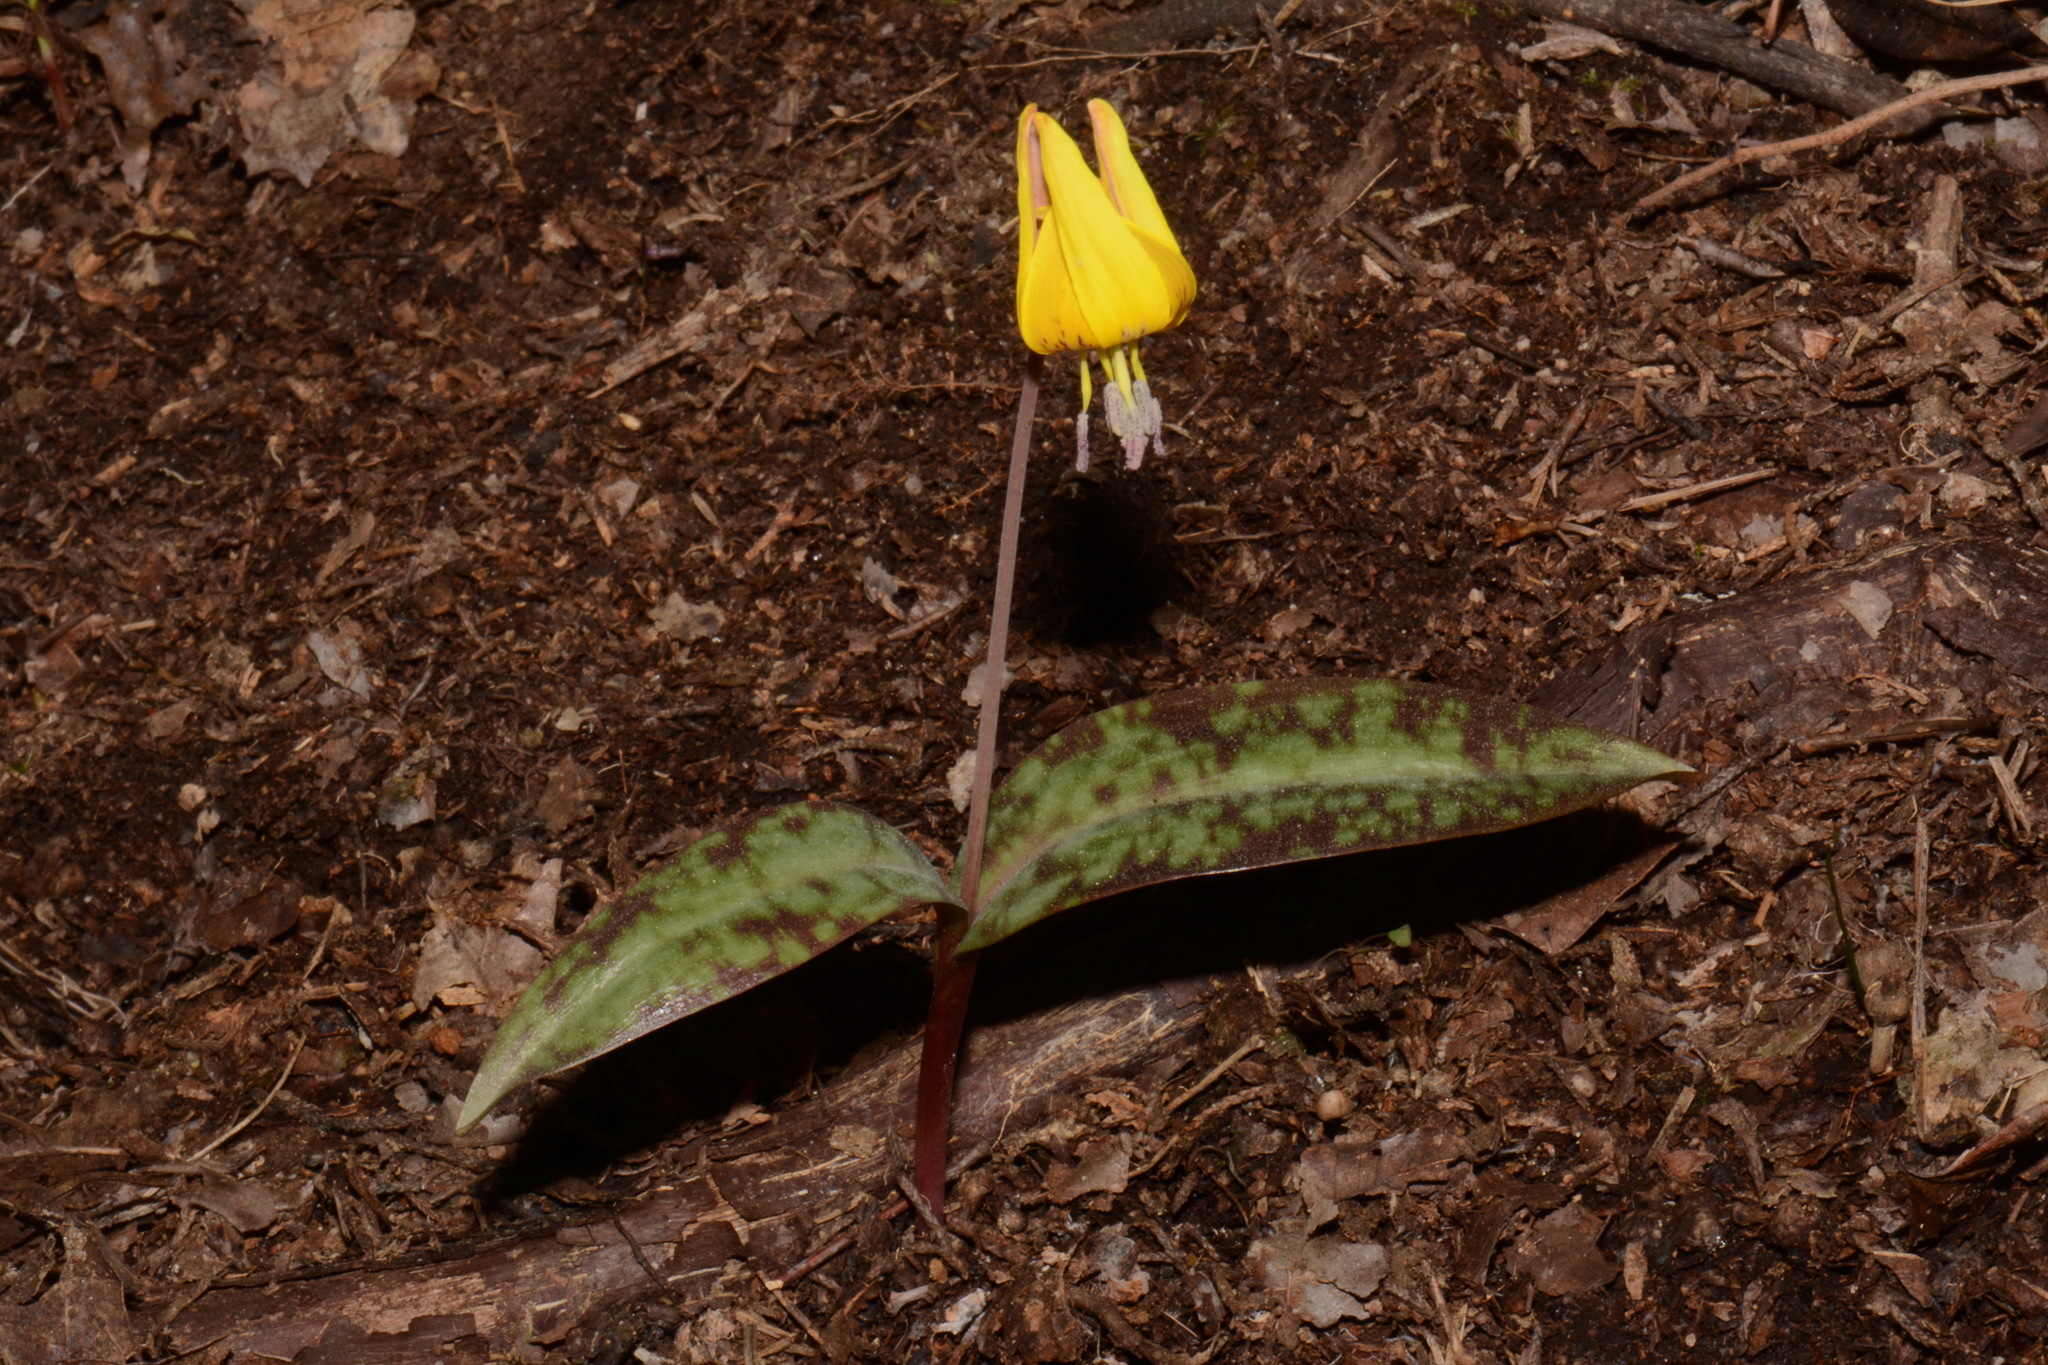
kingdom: Plantae
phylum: Tracheophyta
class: Liliopsida
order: Liliales
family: Liliaceae
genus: Erythronium
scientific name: Erythronium umbilicatum
